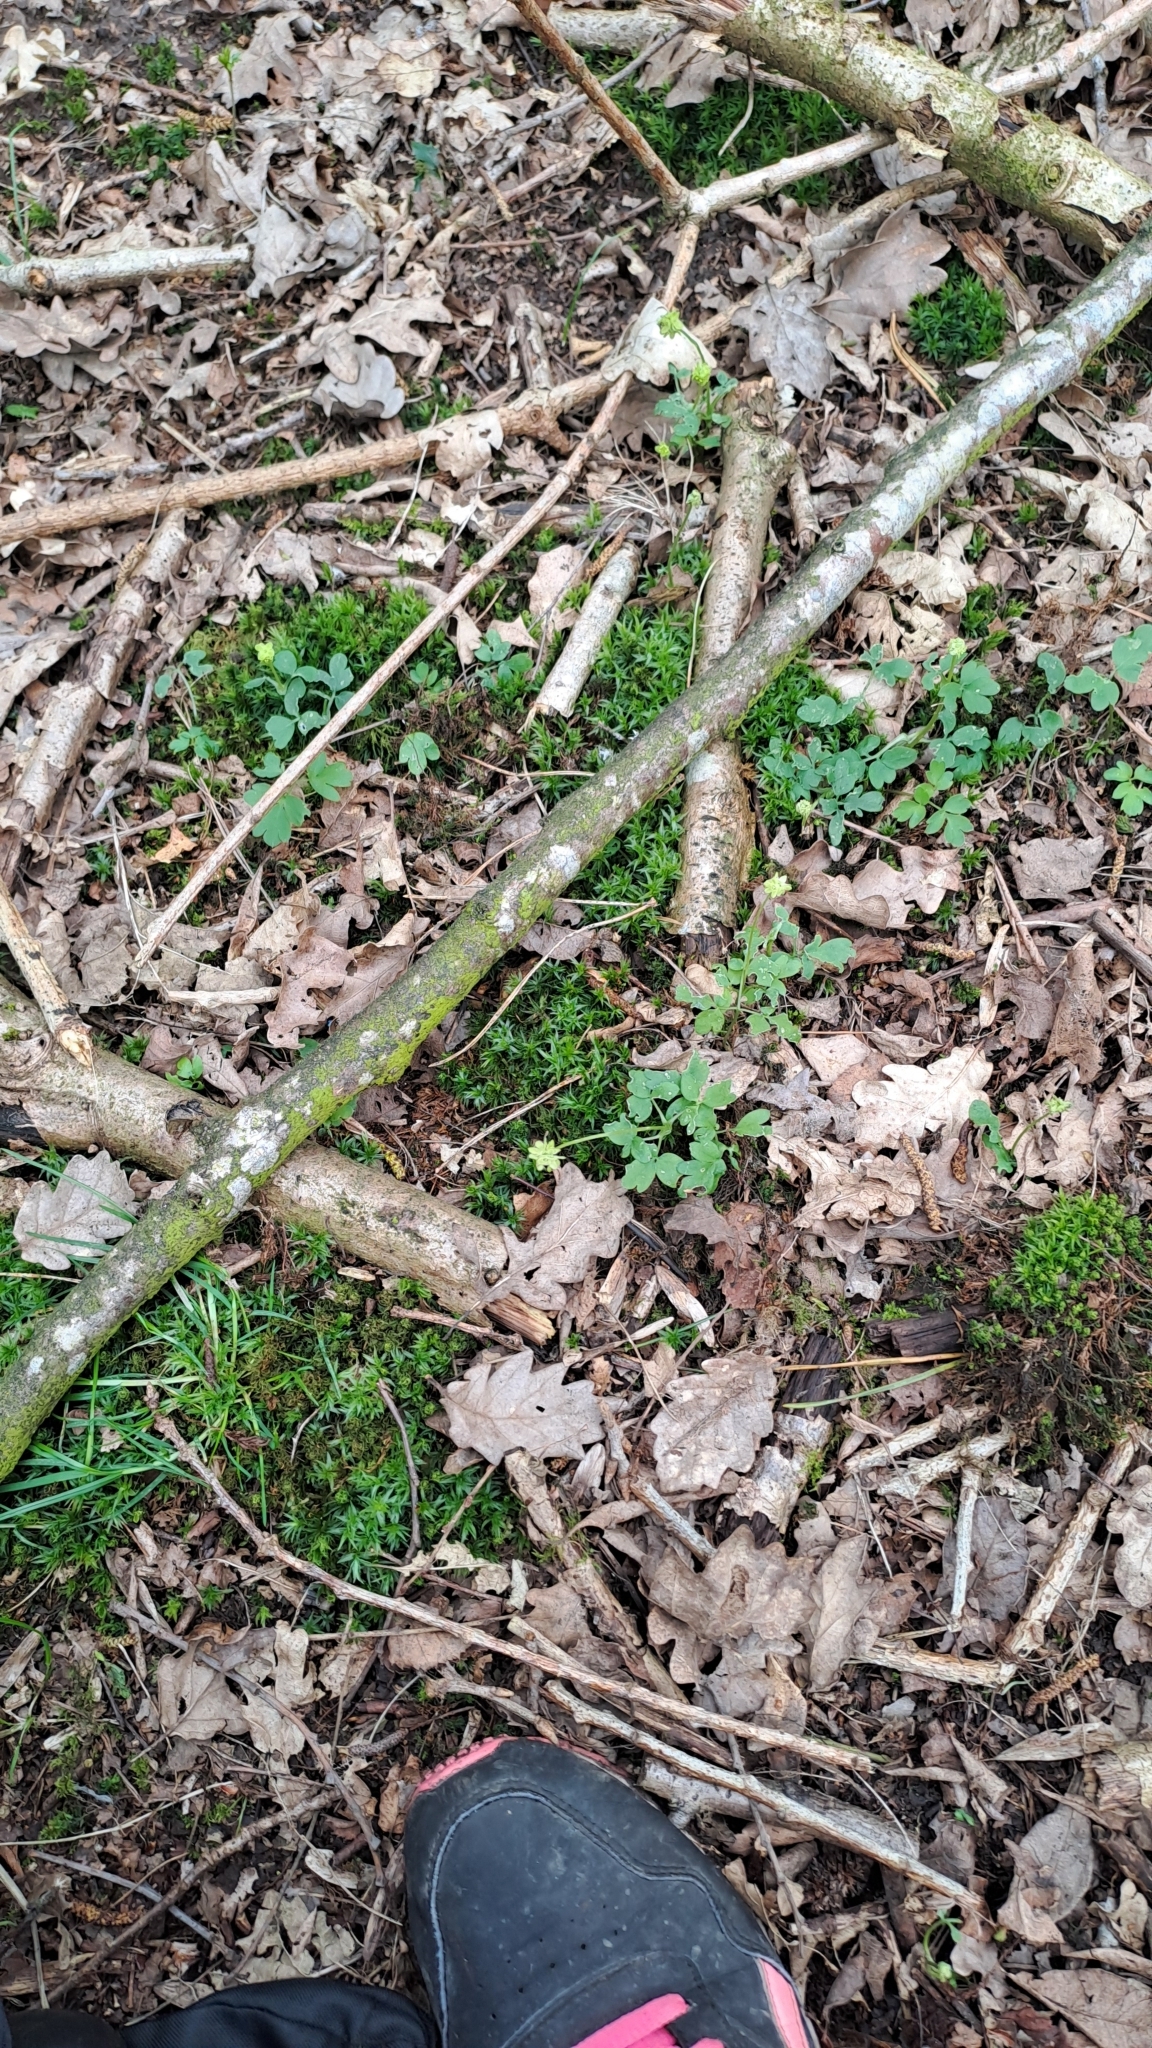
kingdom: Plantae
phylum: Tracheophyta
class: Magnoliopsida
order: Dipsacales
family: Viburnaceae
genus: Adoxa
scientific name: Adoxa moschatellina
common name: Moschatel
